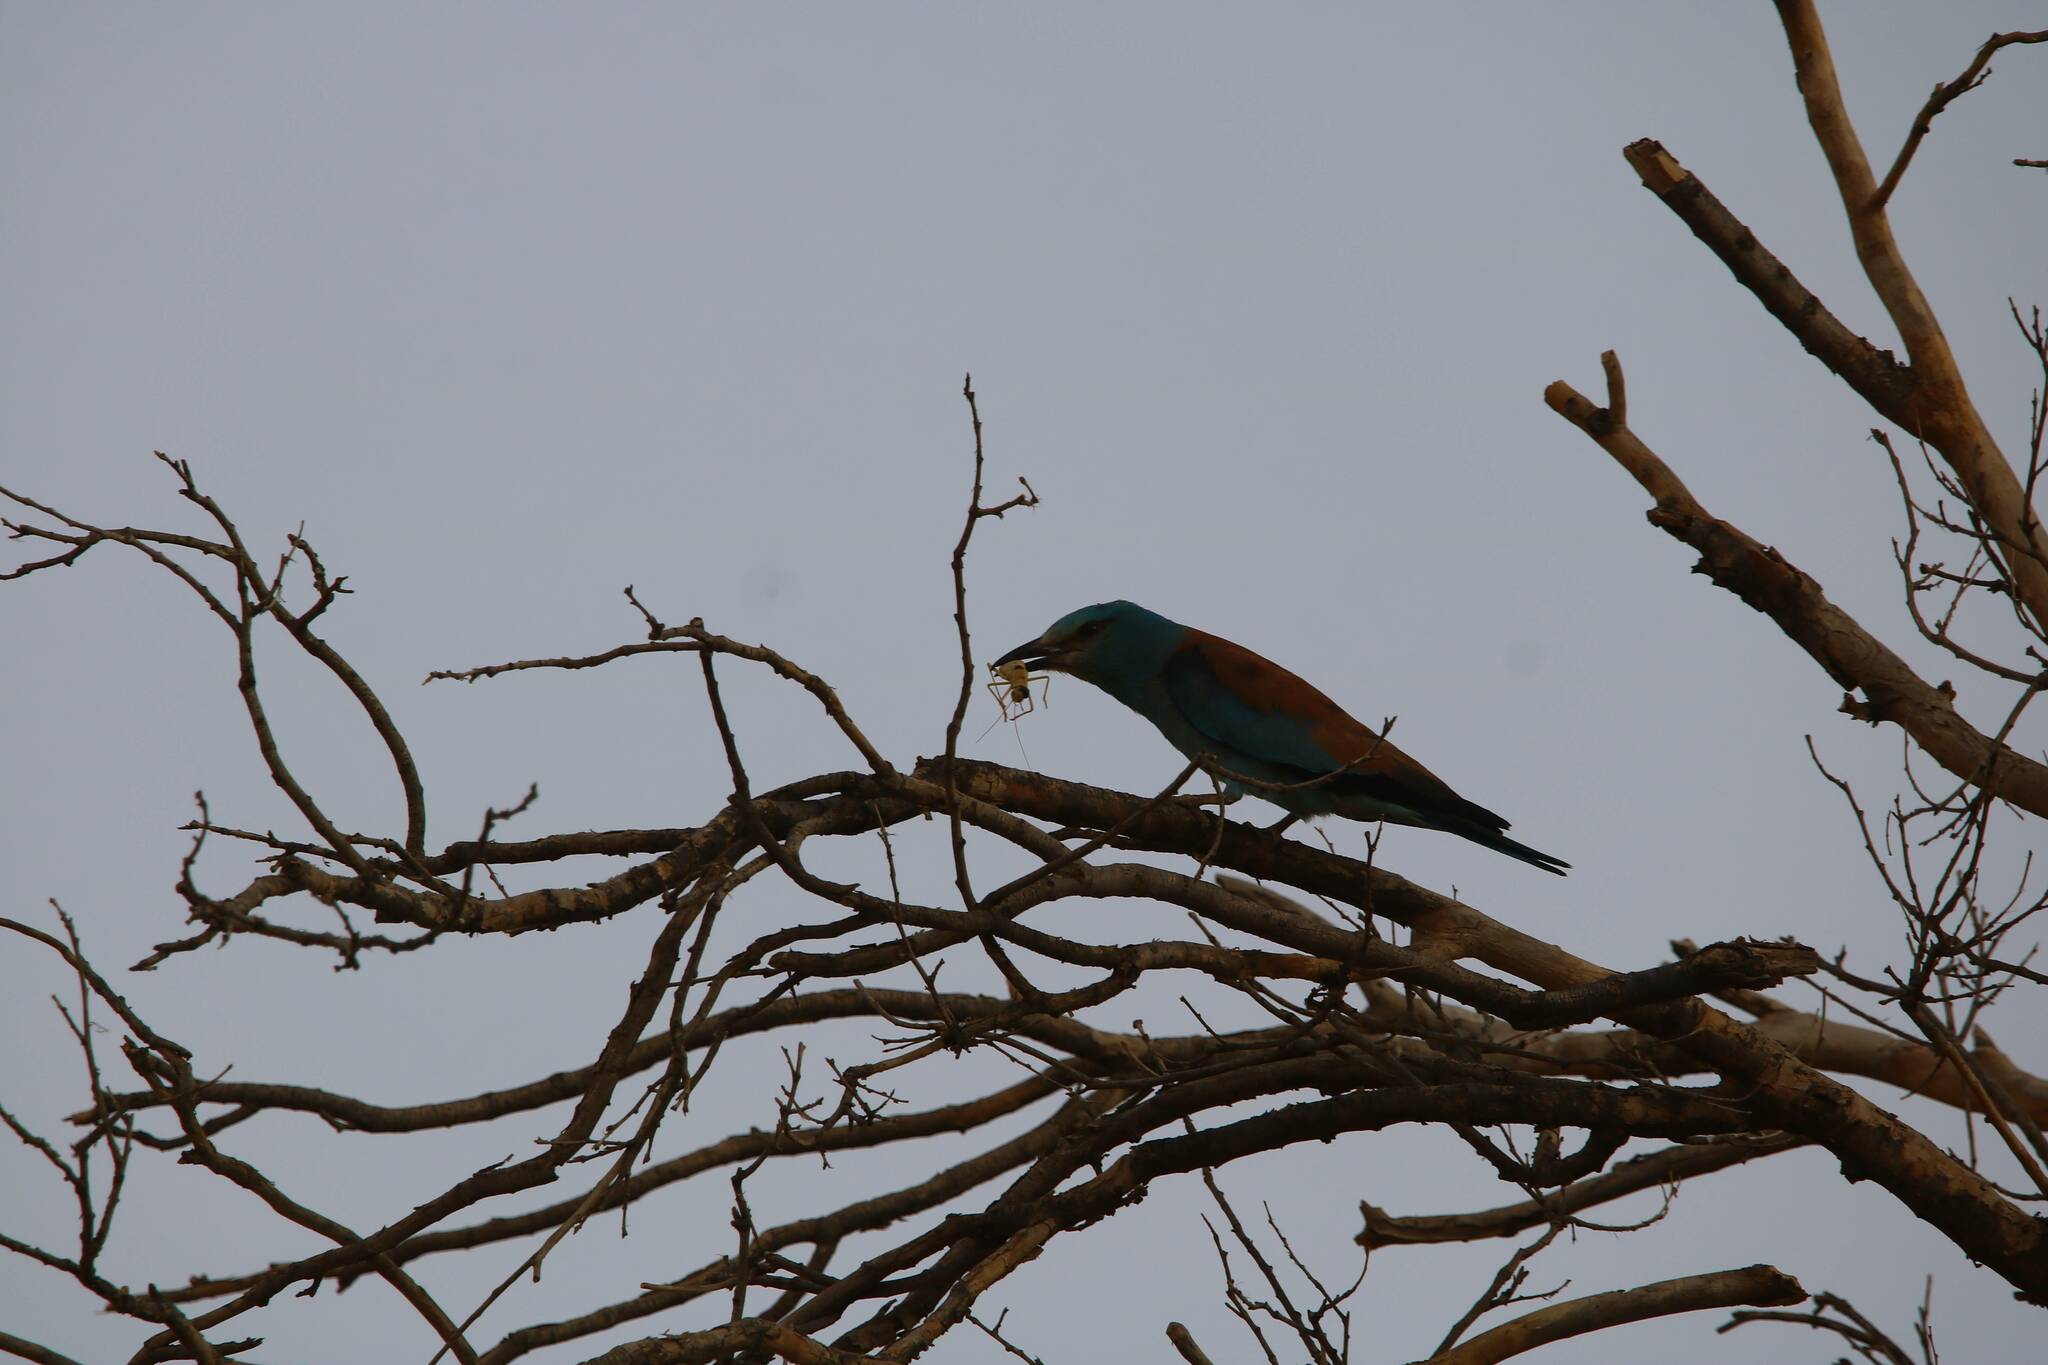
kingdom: Animalia
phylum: Chordata
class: Aves
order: Coraciiformes
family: Coraciidae
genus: Coracias
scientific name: Coracias garrulus
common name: European roller
